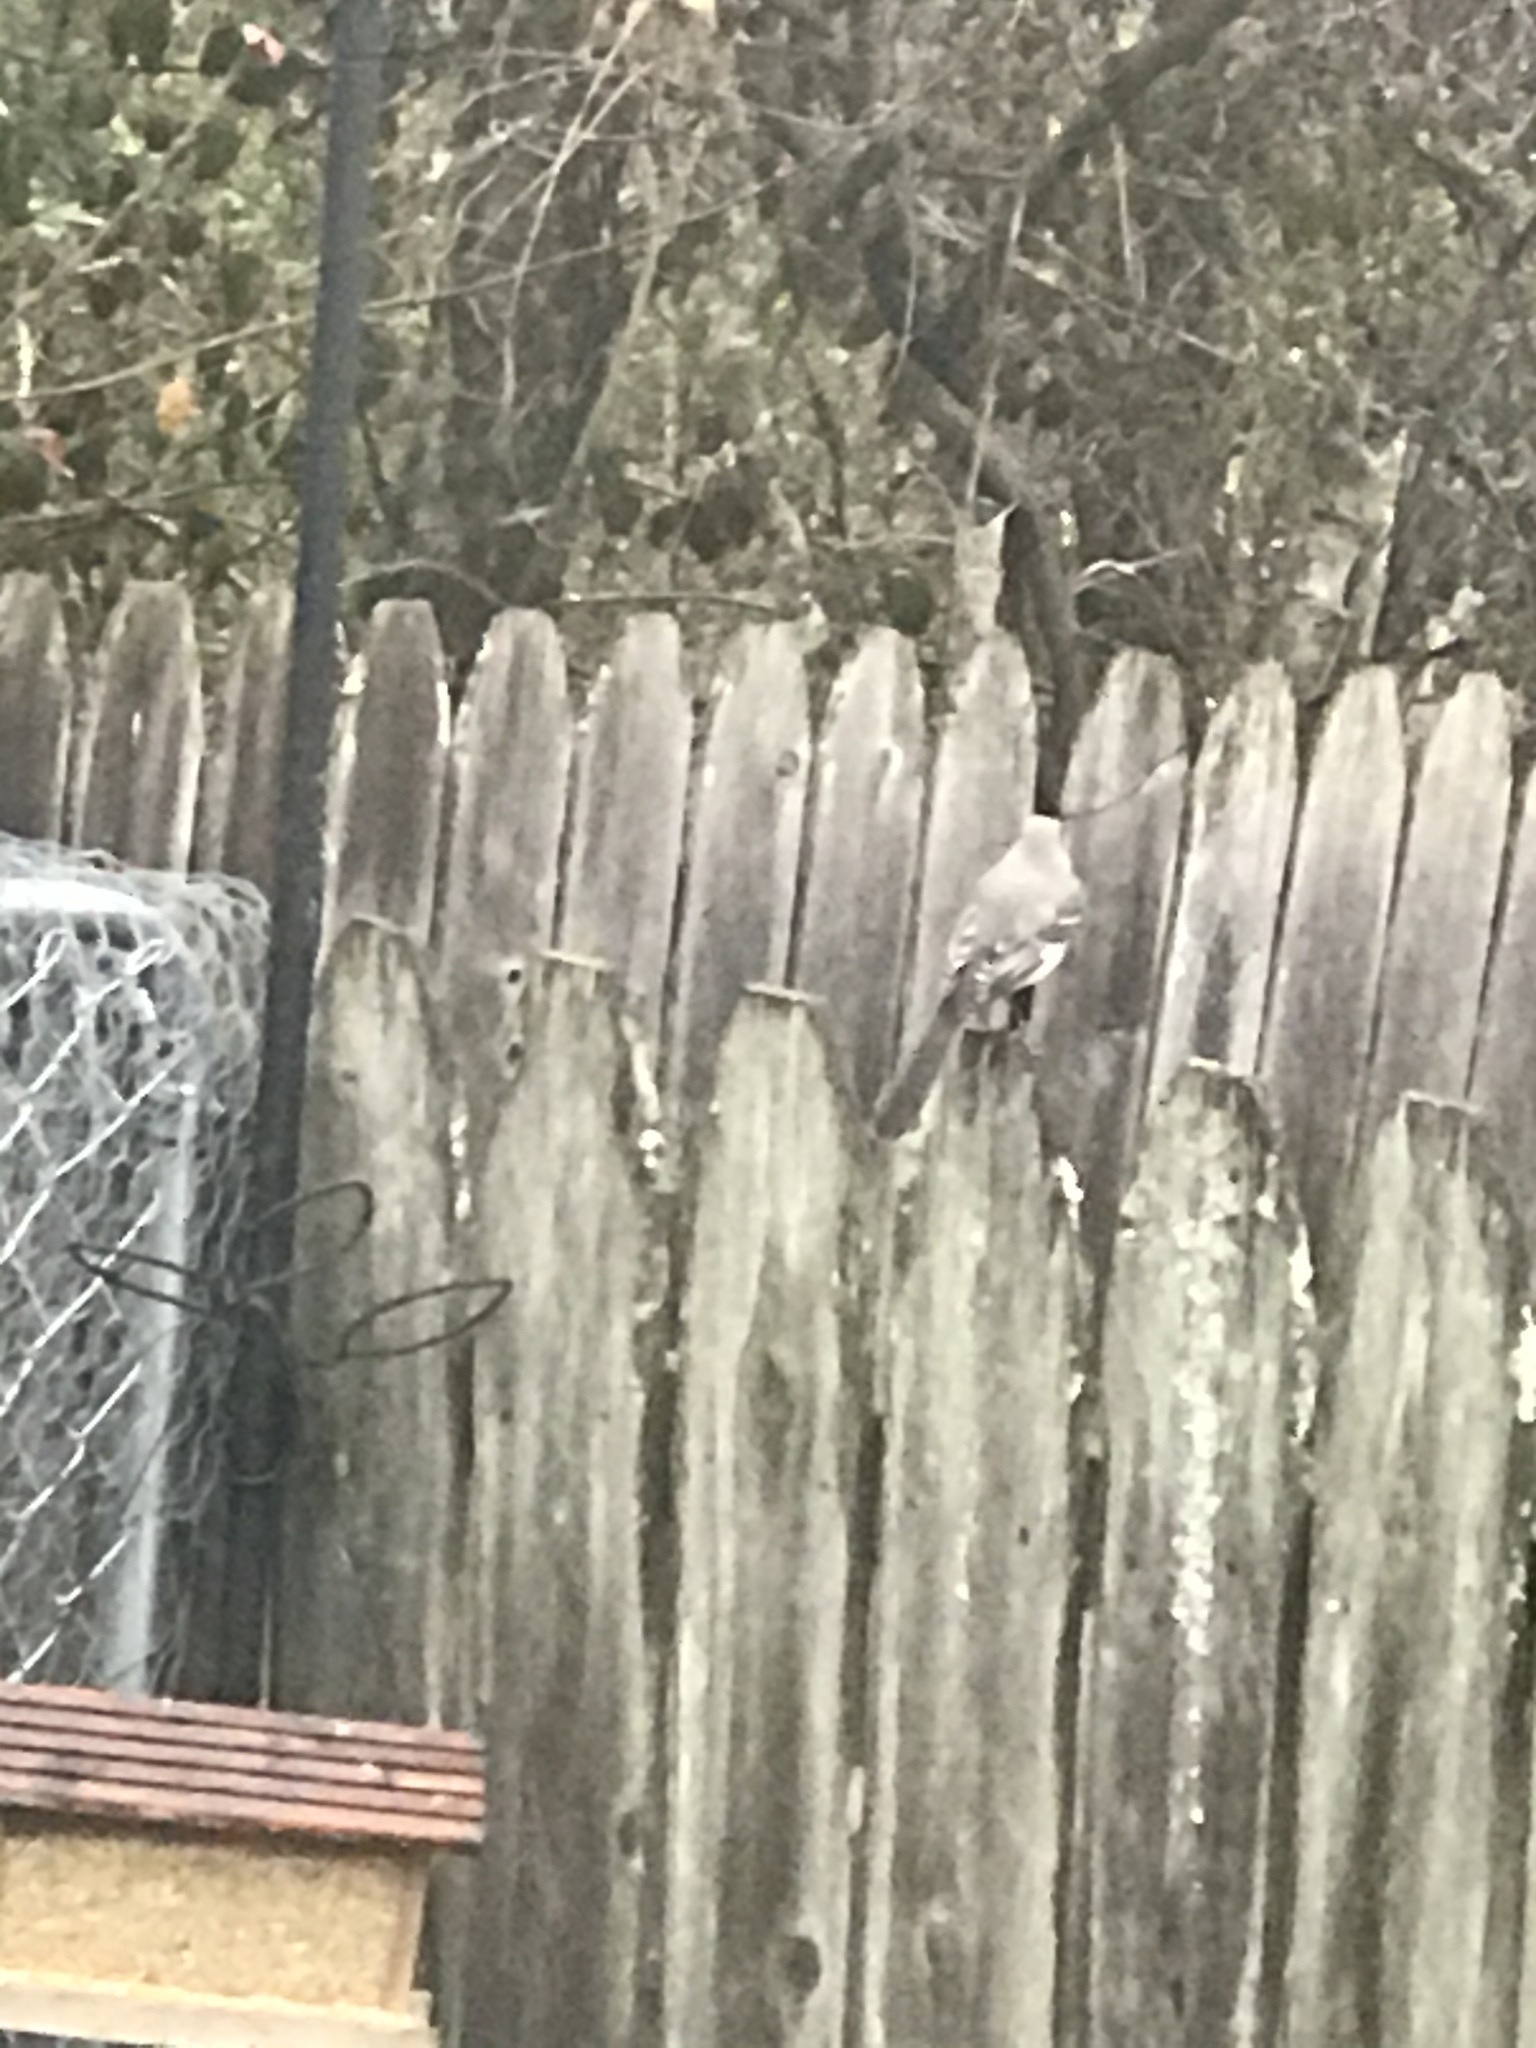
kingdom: Animalia
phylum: Chordata
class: Aves
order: Passeriformes
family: Mimidae
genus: Mimus
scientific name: Mimus polyglottos
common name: Northern mockingbird
